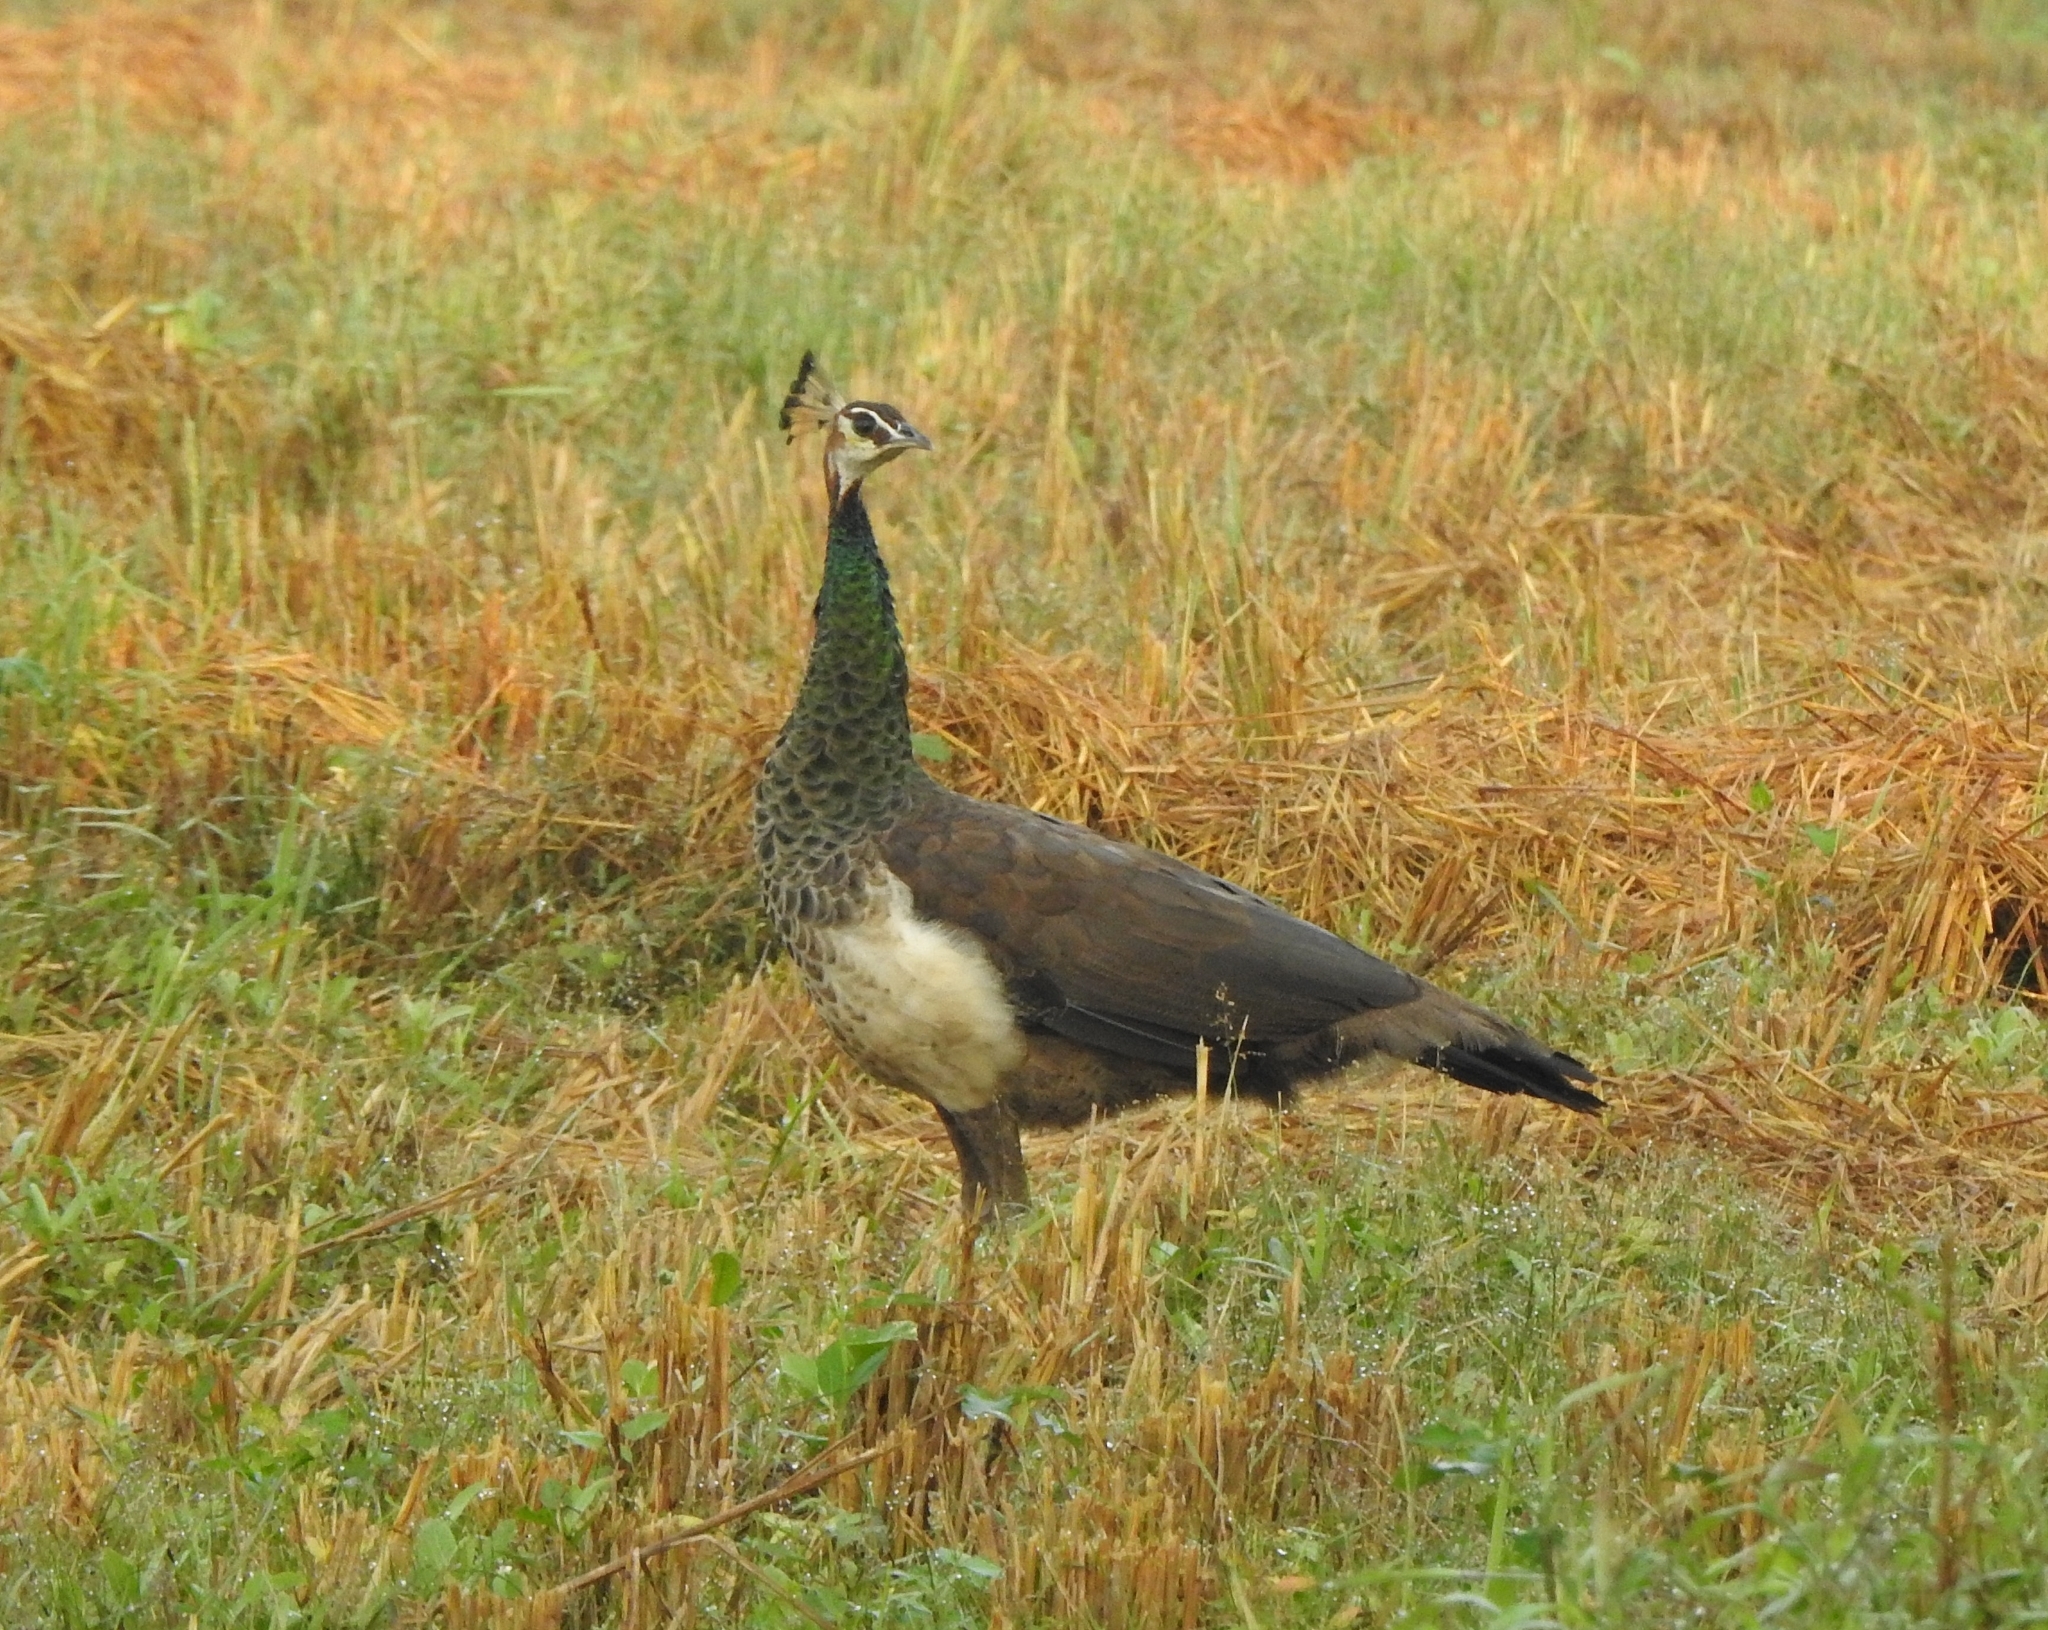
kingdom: Animalia
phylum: Chordata
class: Aves
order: Galliformes
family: Phasianidae
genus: Pavo
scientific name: Pavo cristatus
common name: Indian peafowl
